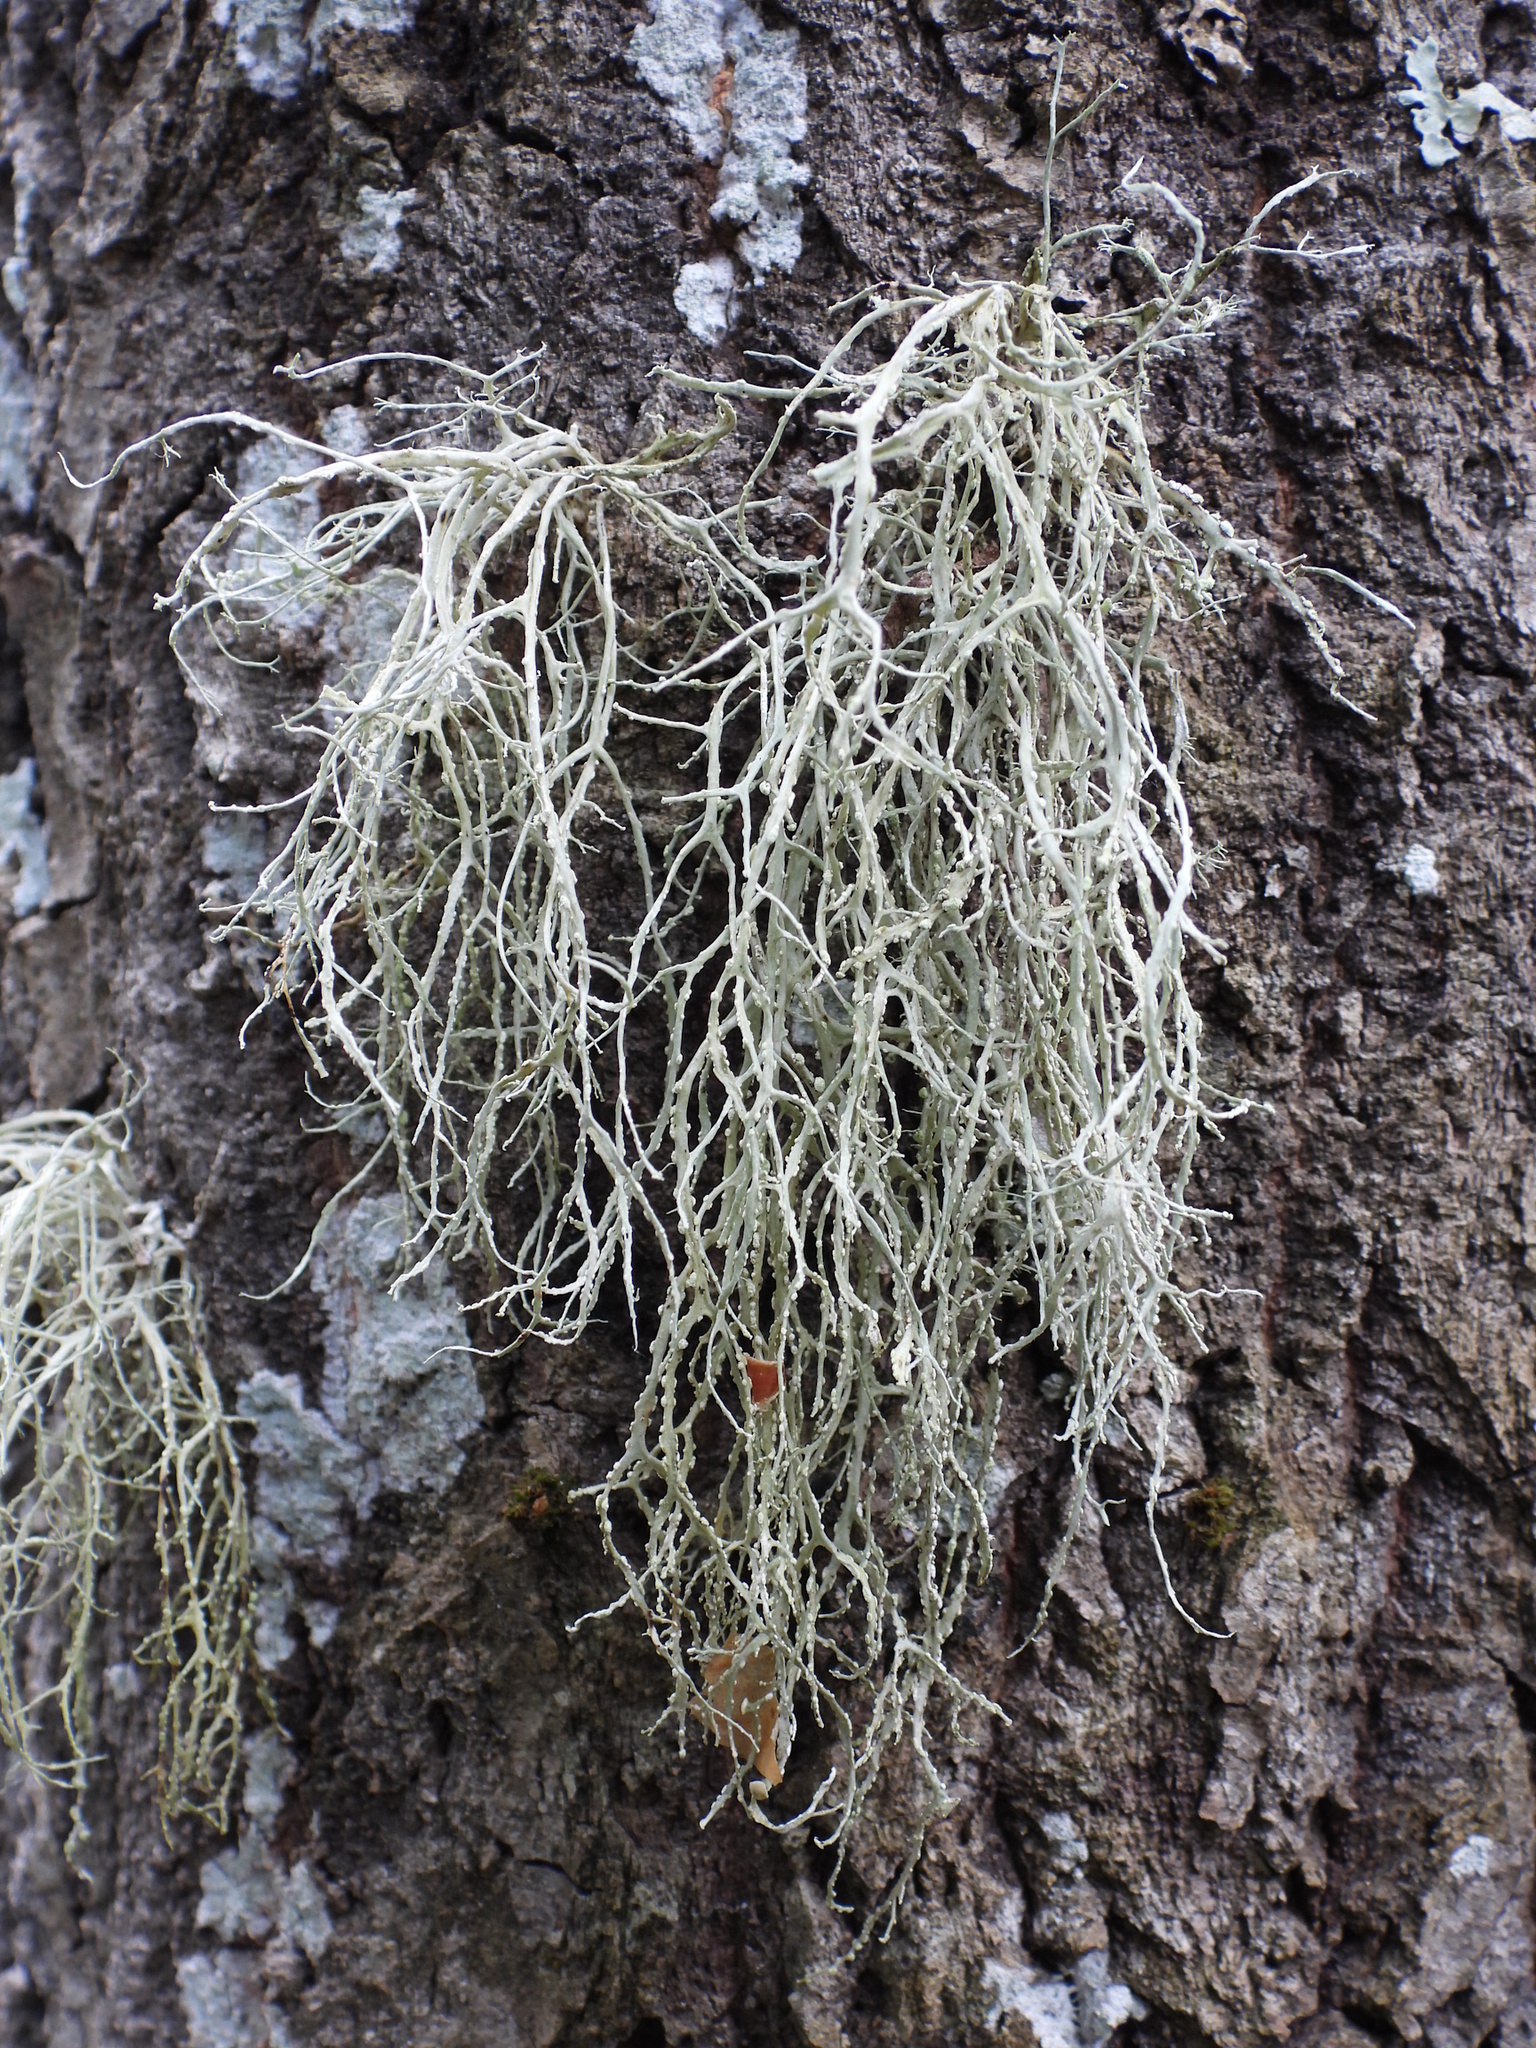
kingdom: Fungi
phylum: Ascomycota
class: Lecanoromycetes
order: Lecanorales
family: Ramalinaceae
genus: Ramalina
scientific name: Ramalina farinacea
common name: Farinose cartilage lichen
